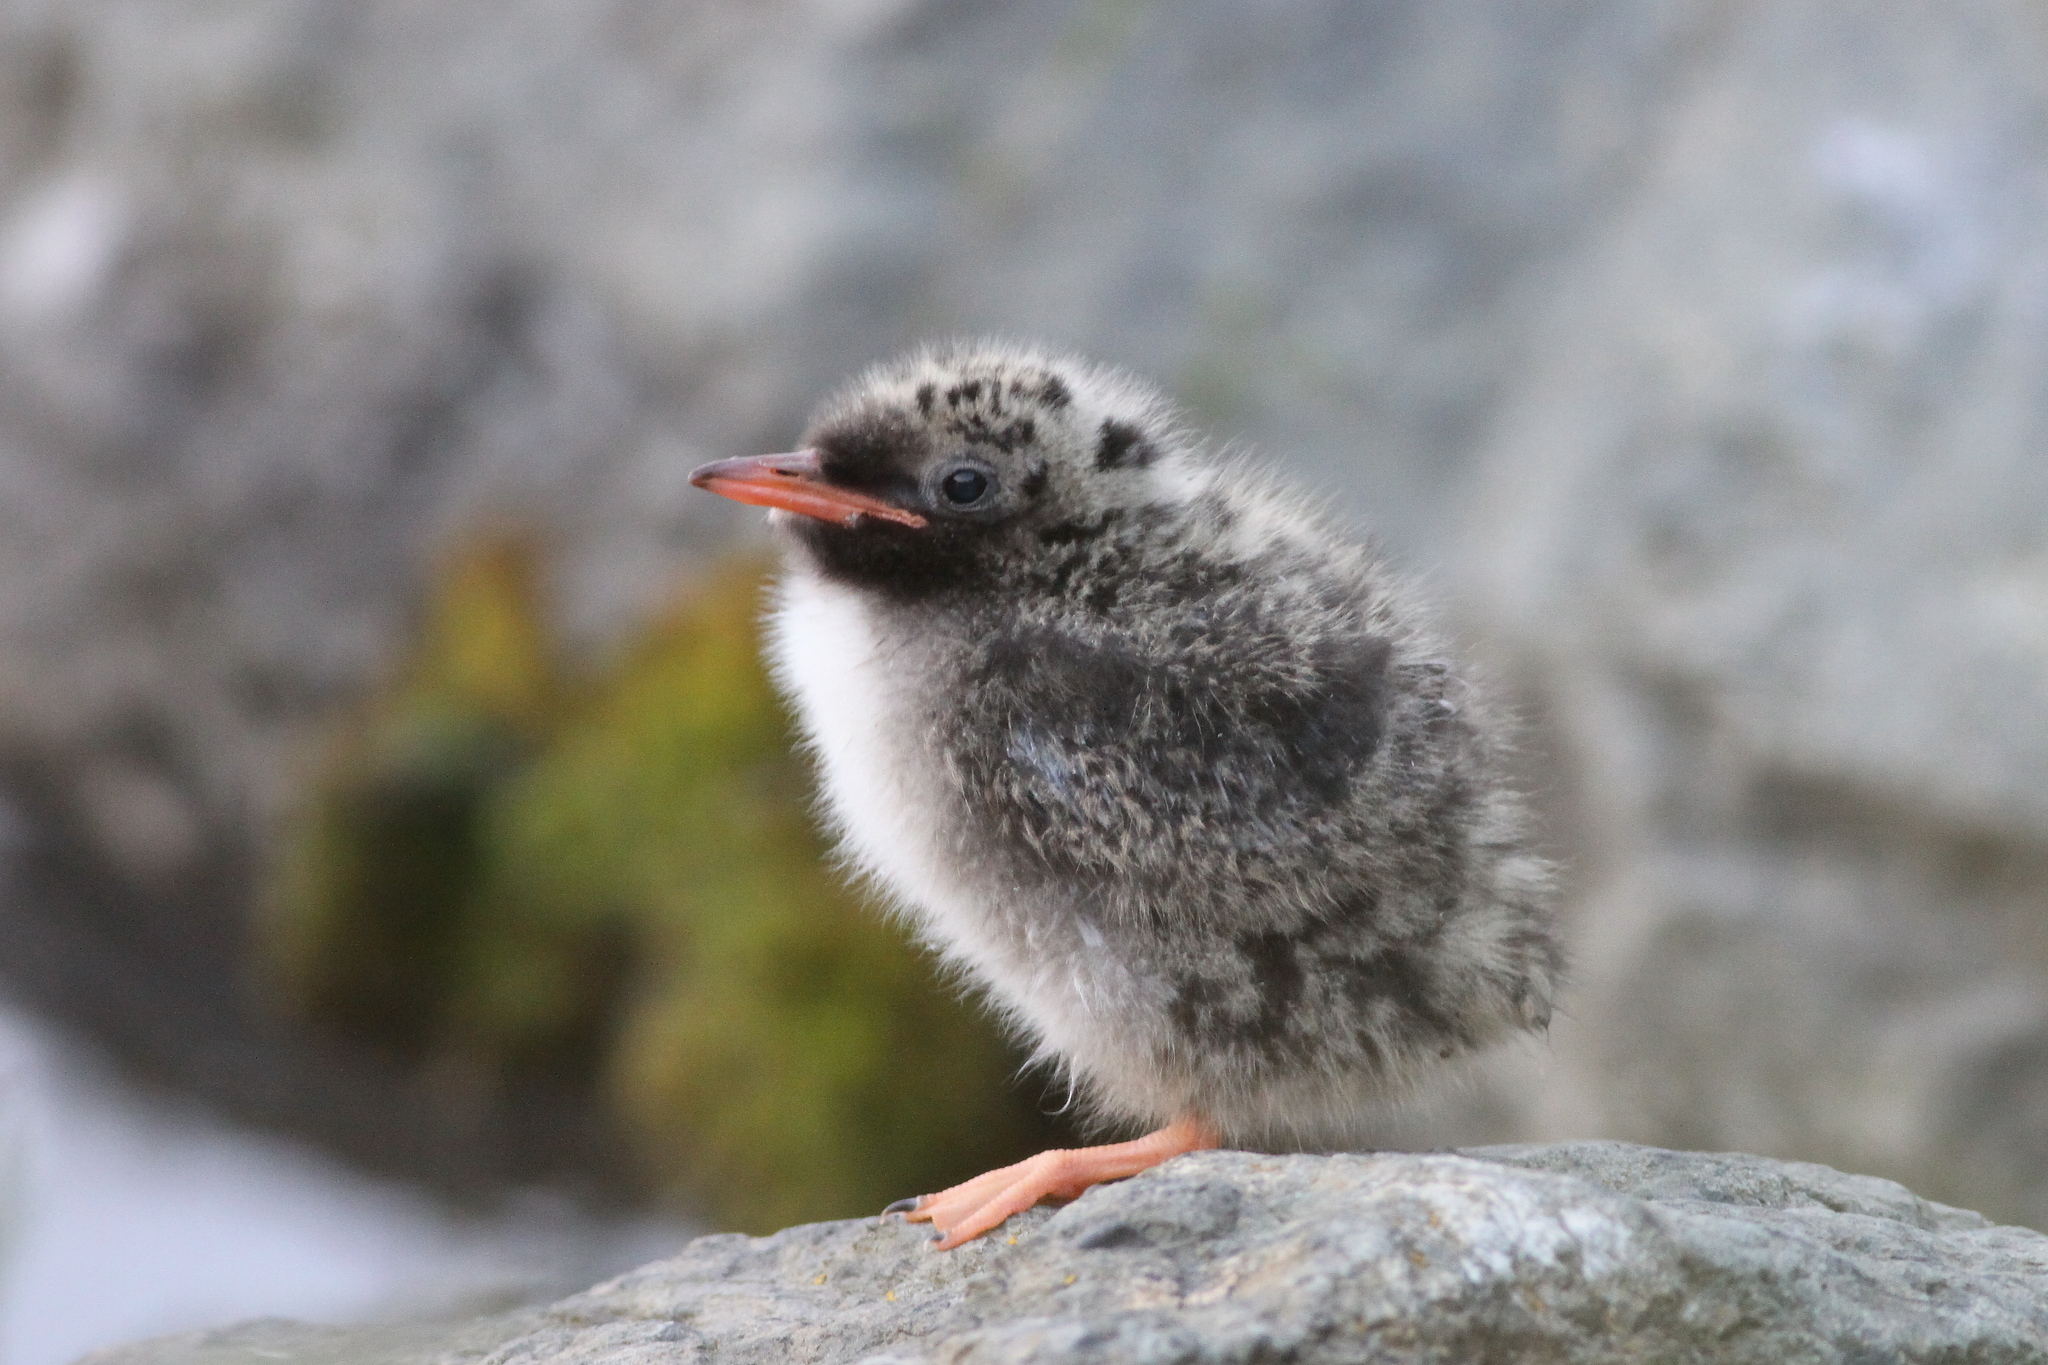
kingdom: Animalia
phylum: Chordata
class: Aves
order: Charadriiformes
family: Laridae
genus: Sterna
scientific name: Sterna paradisaea
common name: Arctic tern
